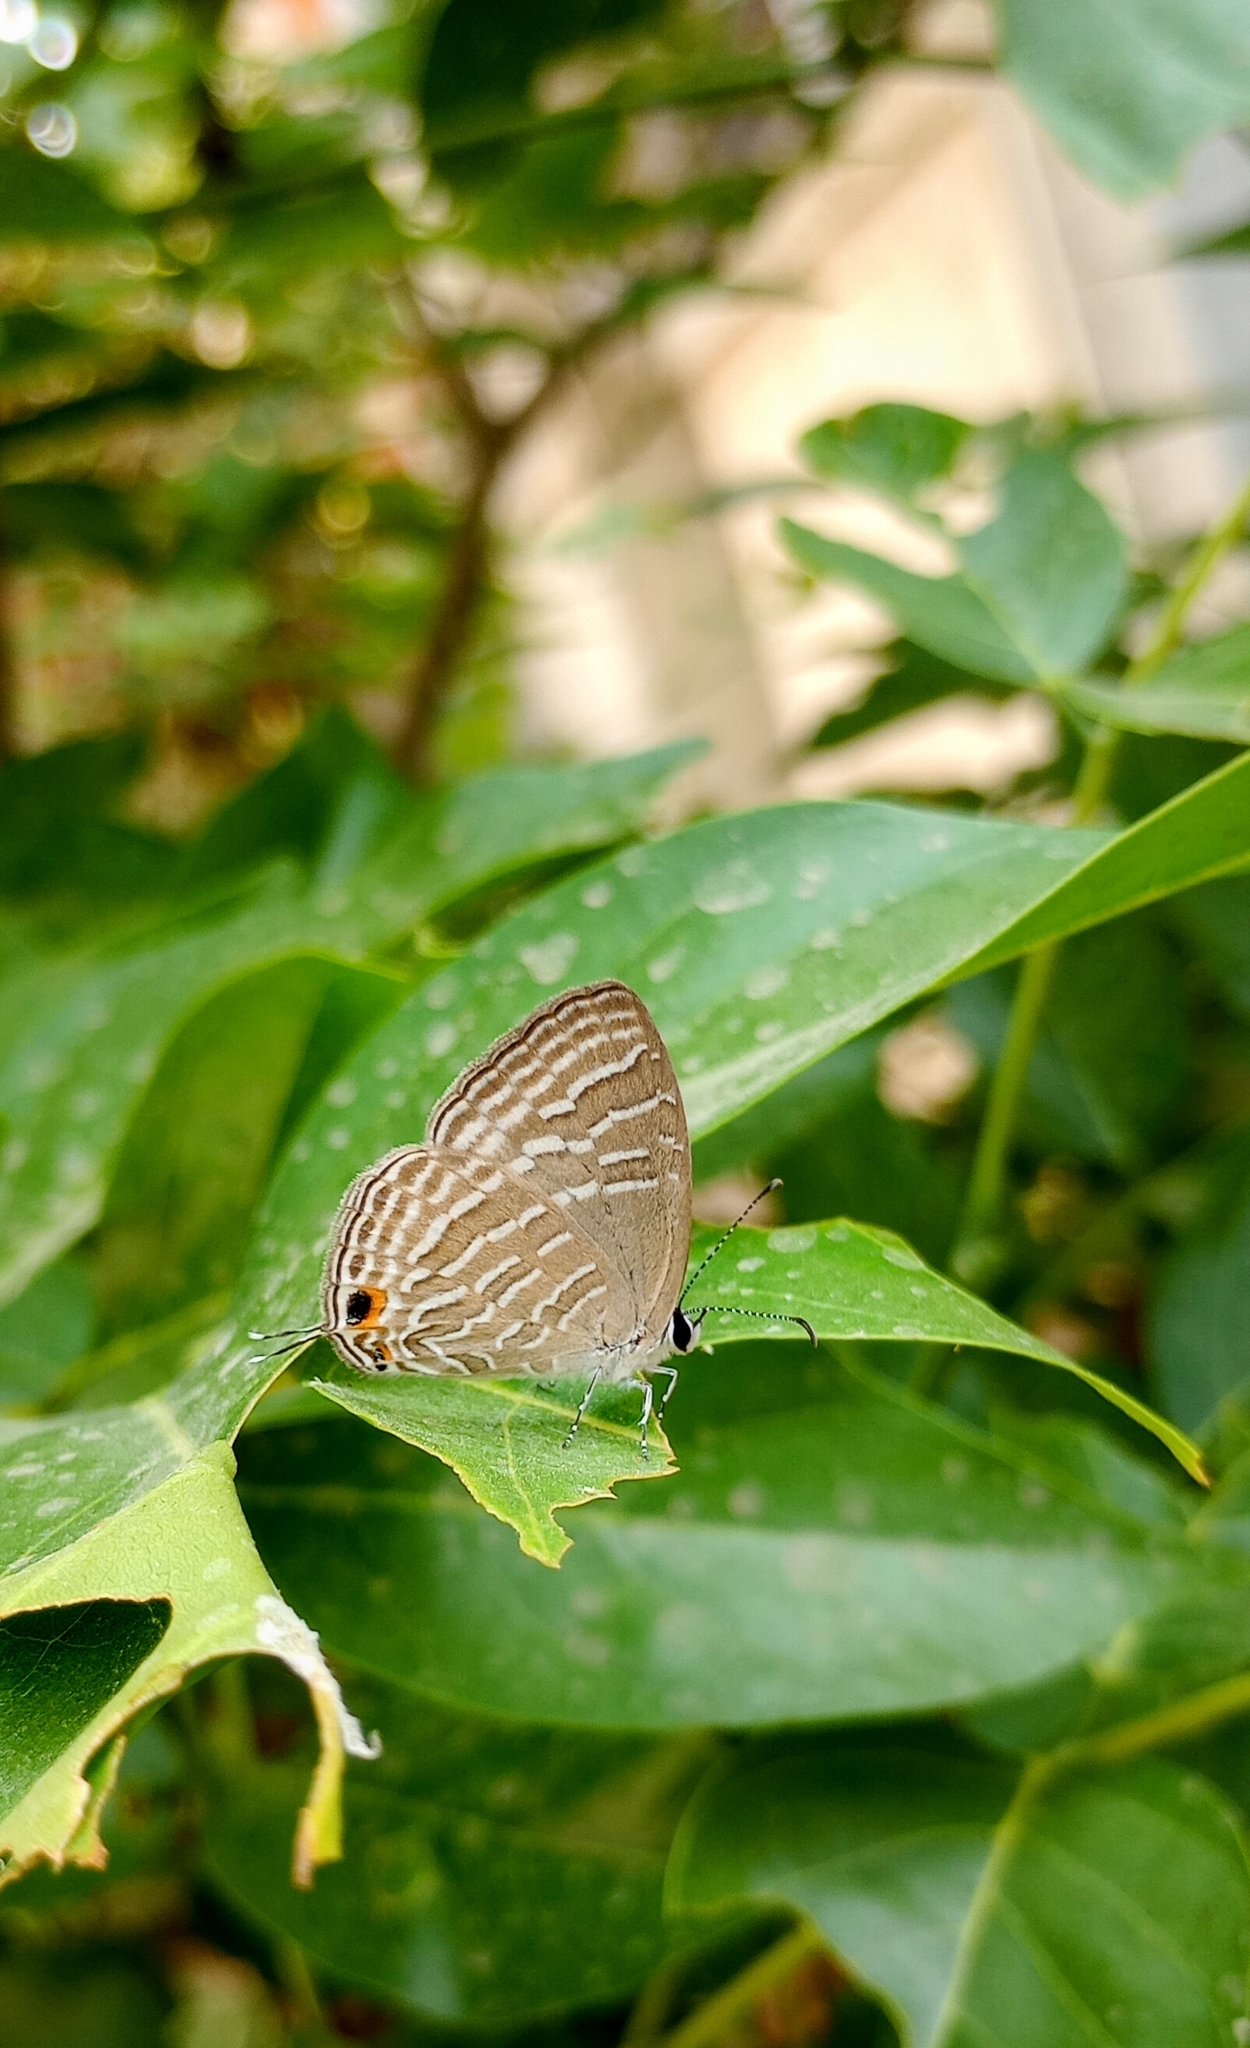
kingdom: Animalia
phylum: Arthropoda
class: Insecta
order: Lepidoptera
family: Lycaenidae
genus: Jamides
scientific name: Jamides celeno
